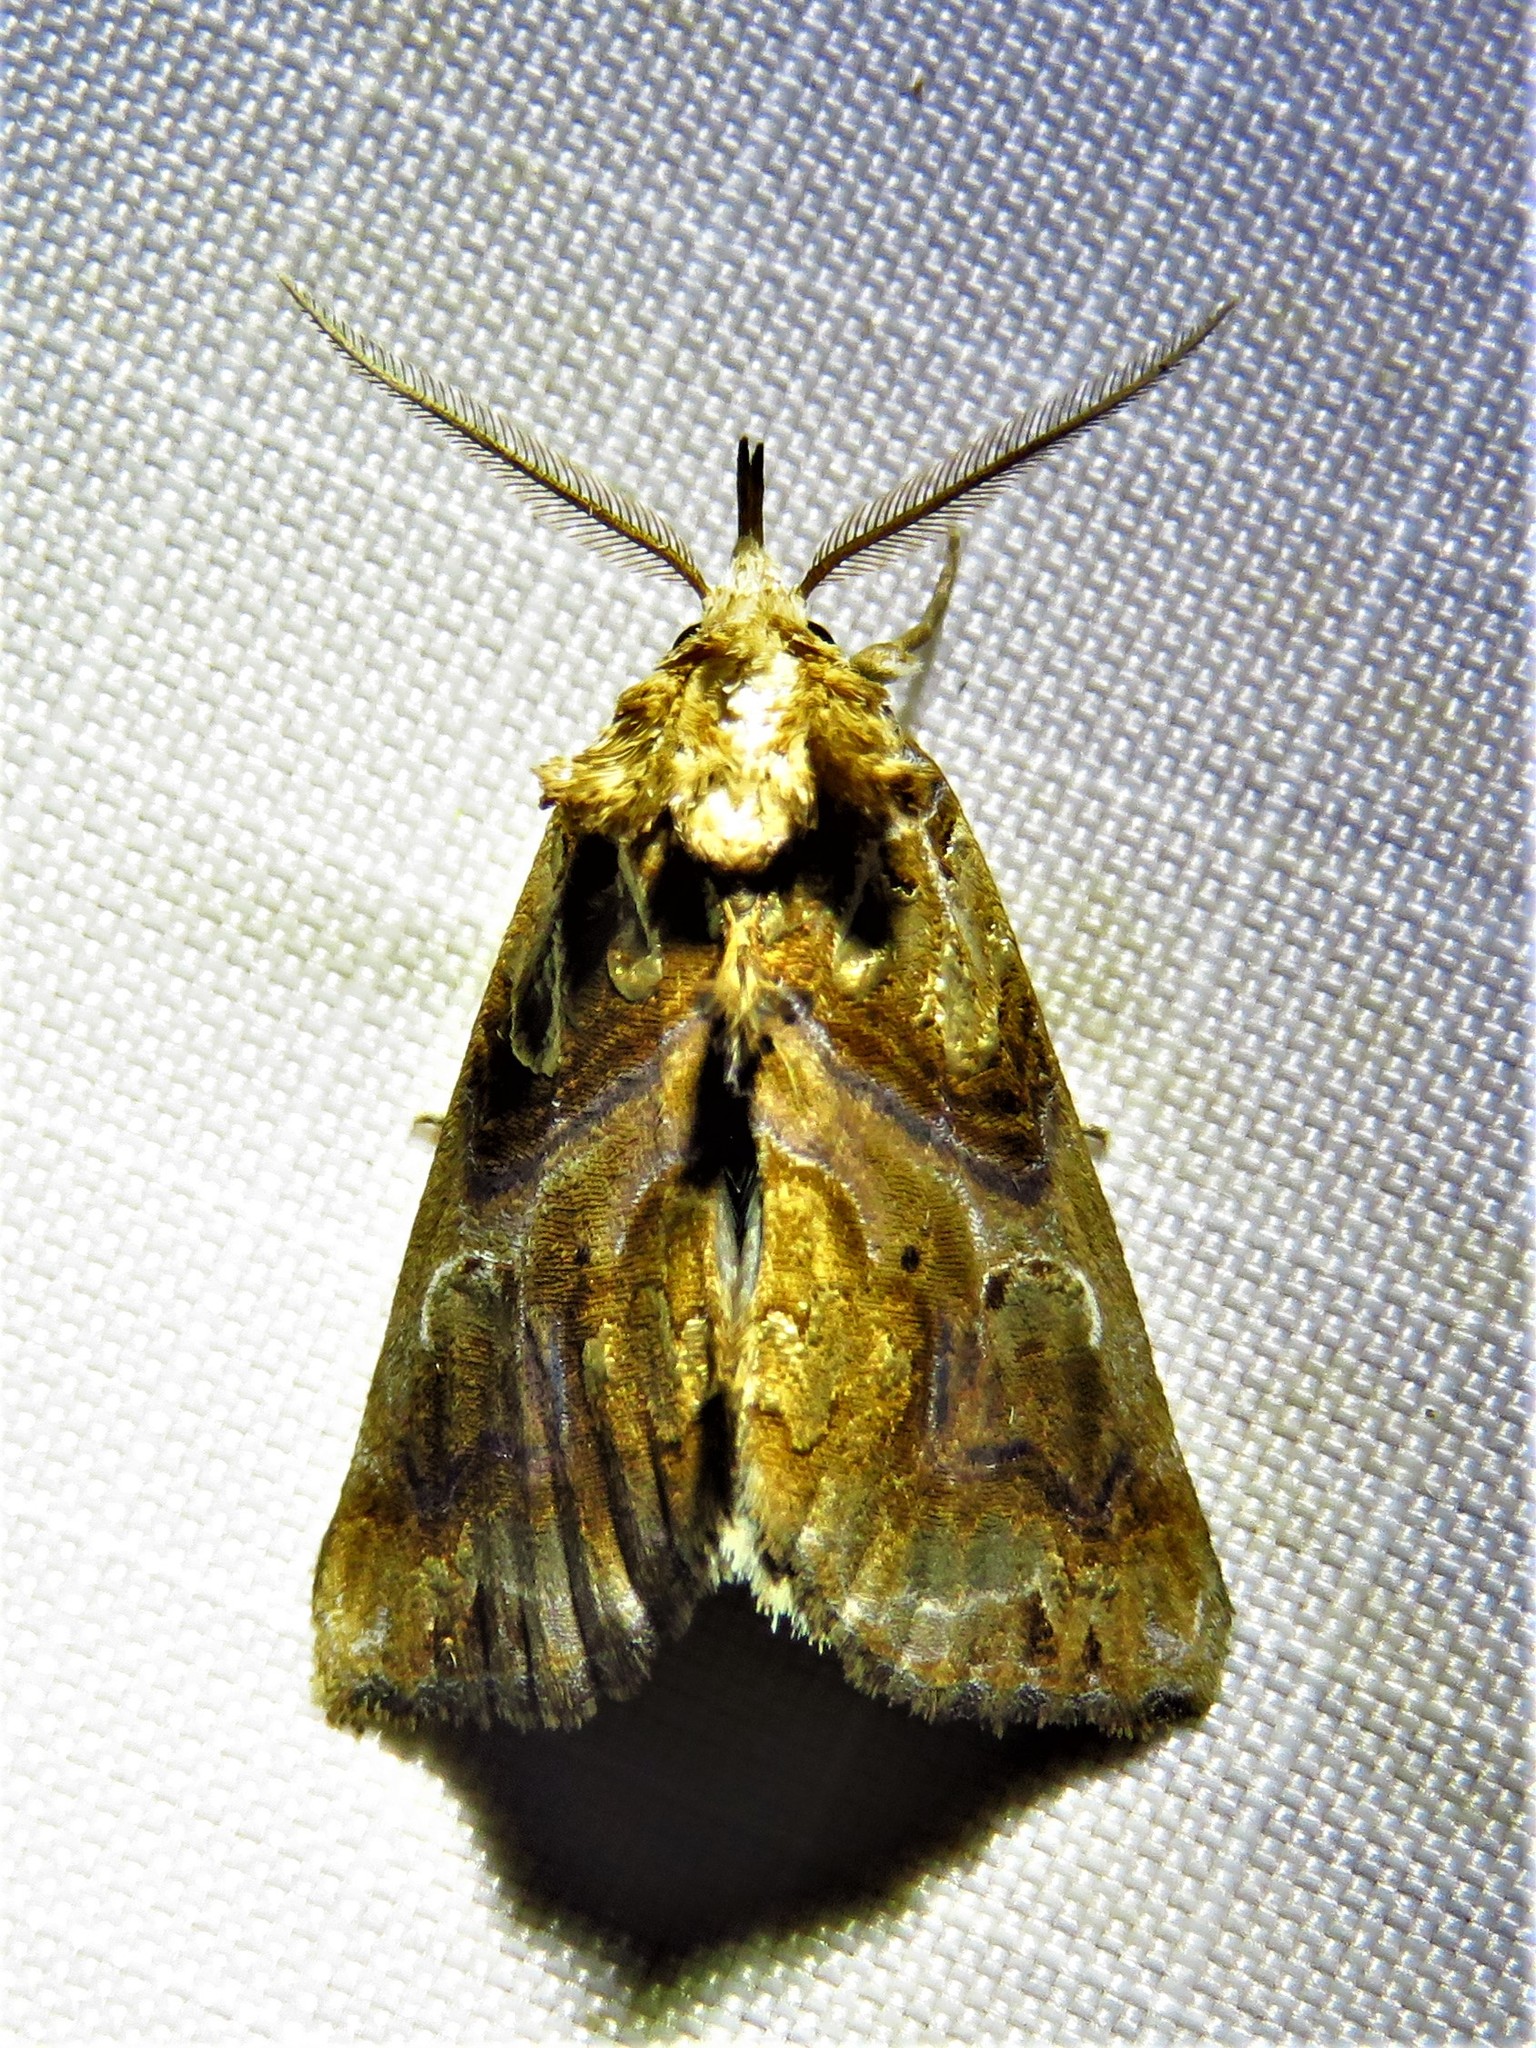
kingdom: Animalia
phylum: Arthropoda
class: Insecta
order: Lepidoptera
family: Erebidae
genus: Plusiodonta
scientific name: Plusiodonta compressipalpis
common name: Moonseed moth
